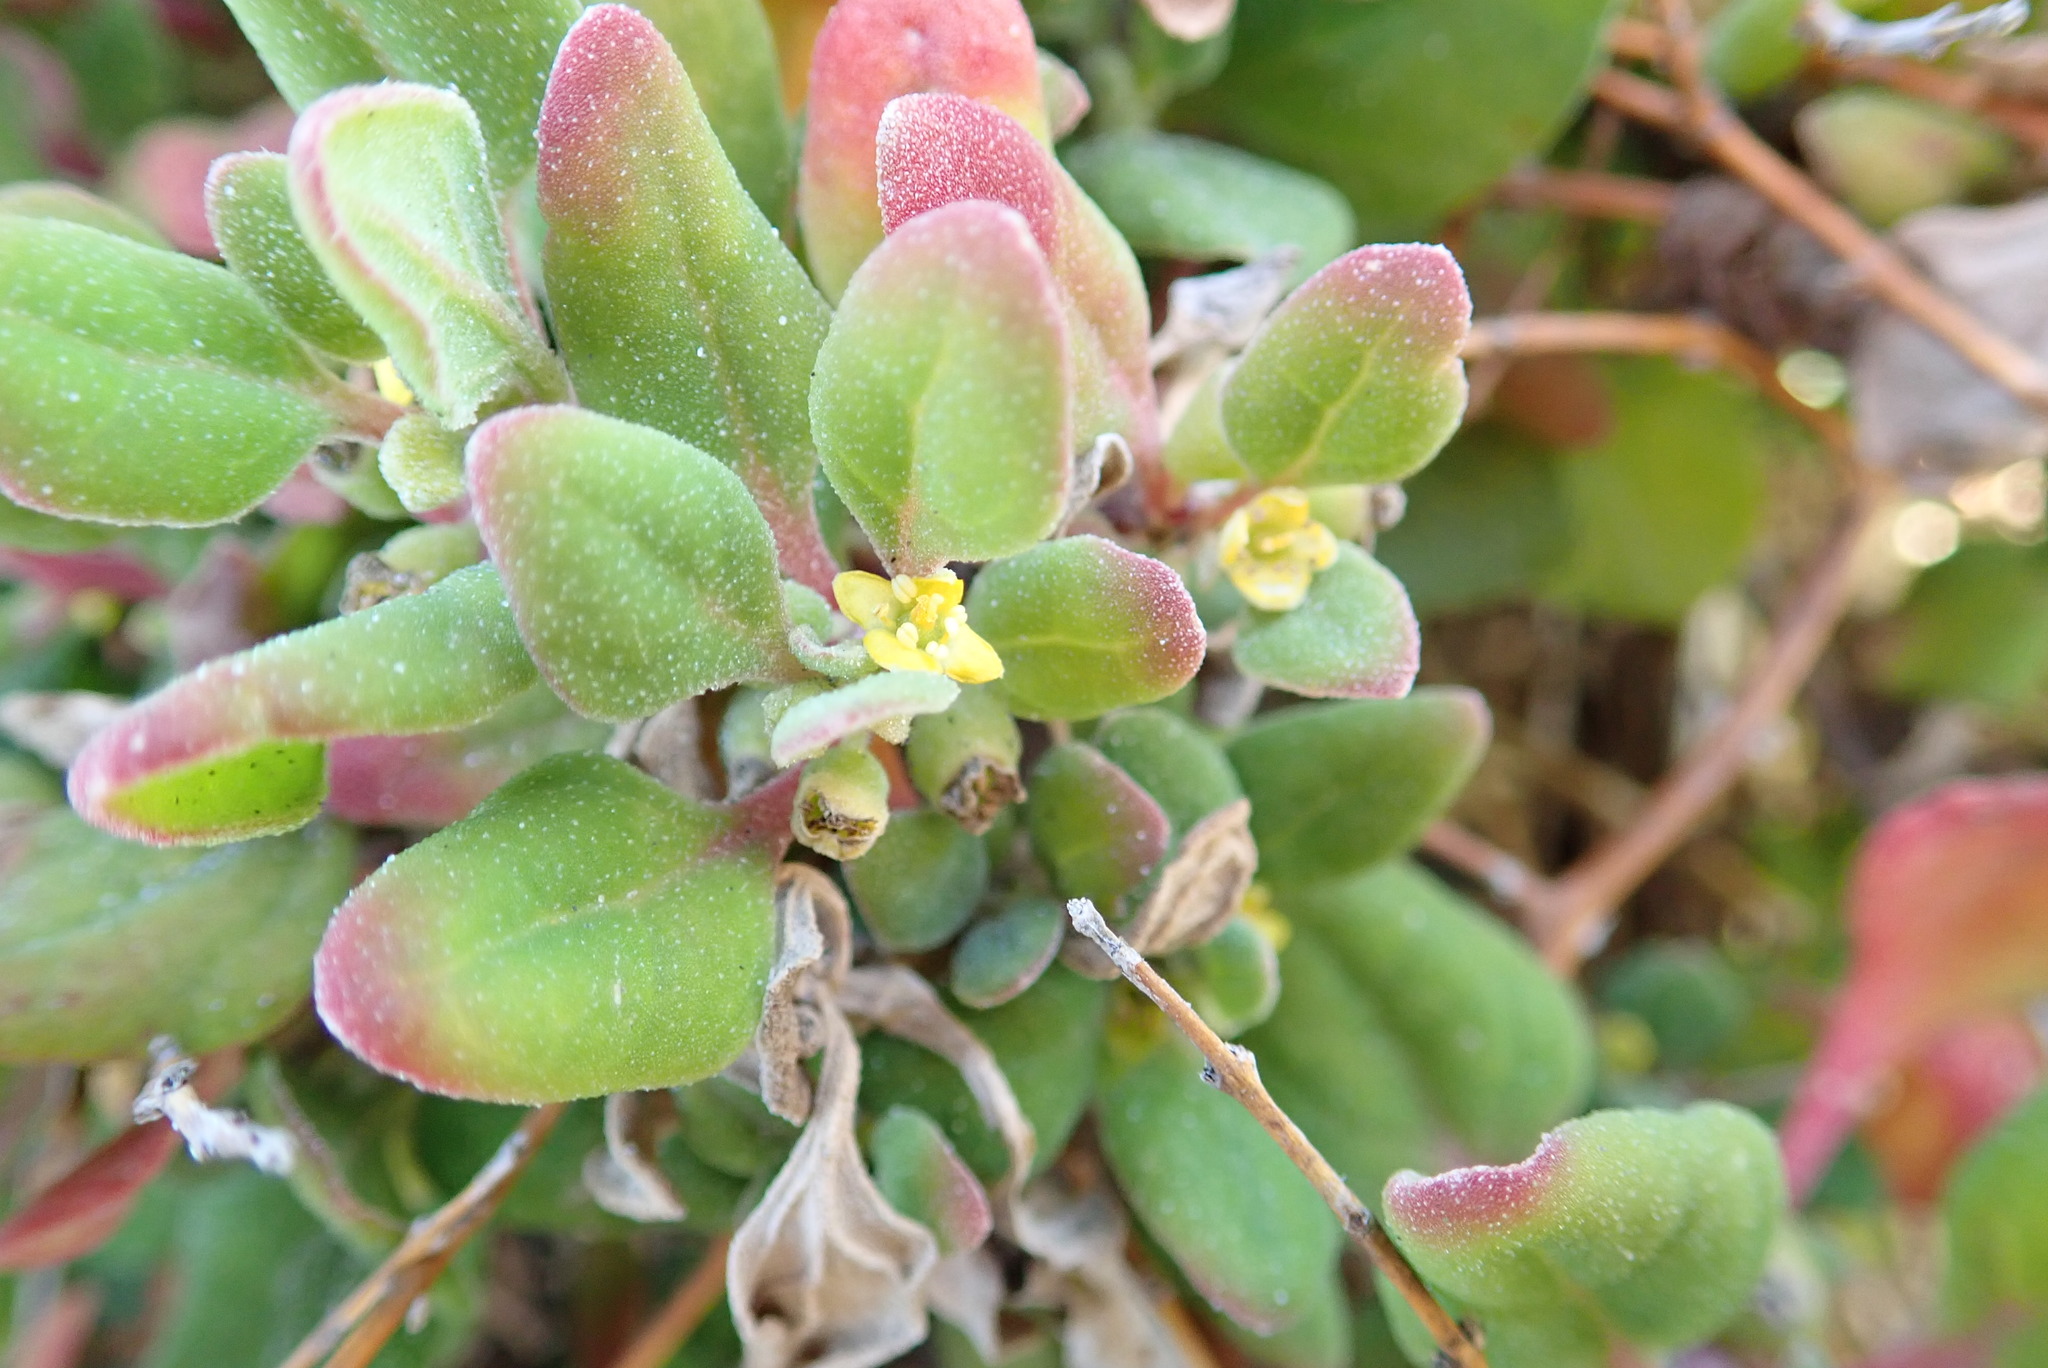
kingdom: Plantae
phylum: Tracheophyta
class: Magnoliopsida
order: Caryophyllales
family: Aizoaceae
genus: Tetragonia
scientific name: Tetragonia implexicoma
